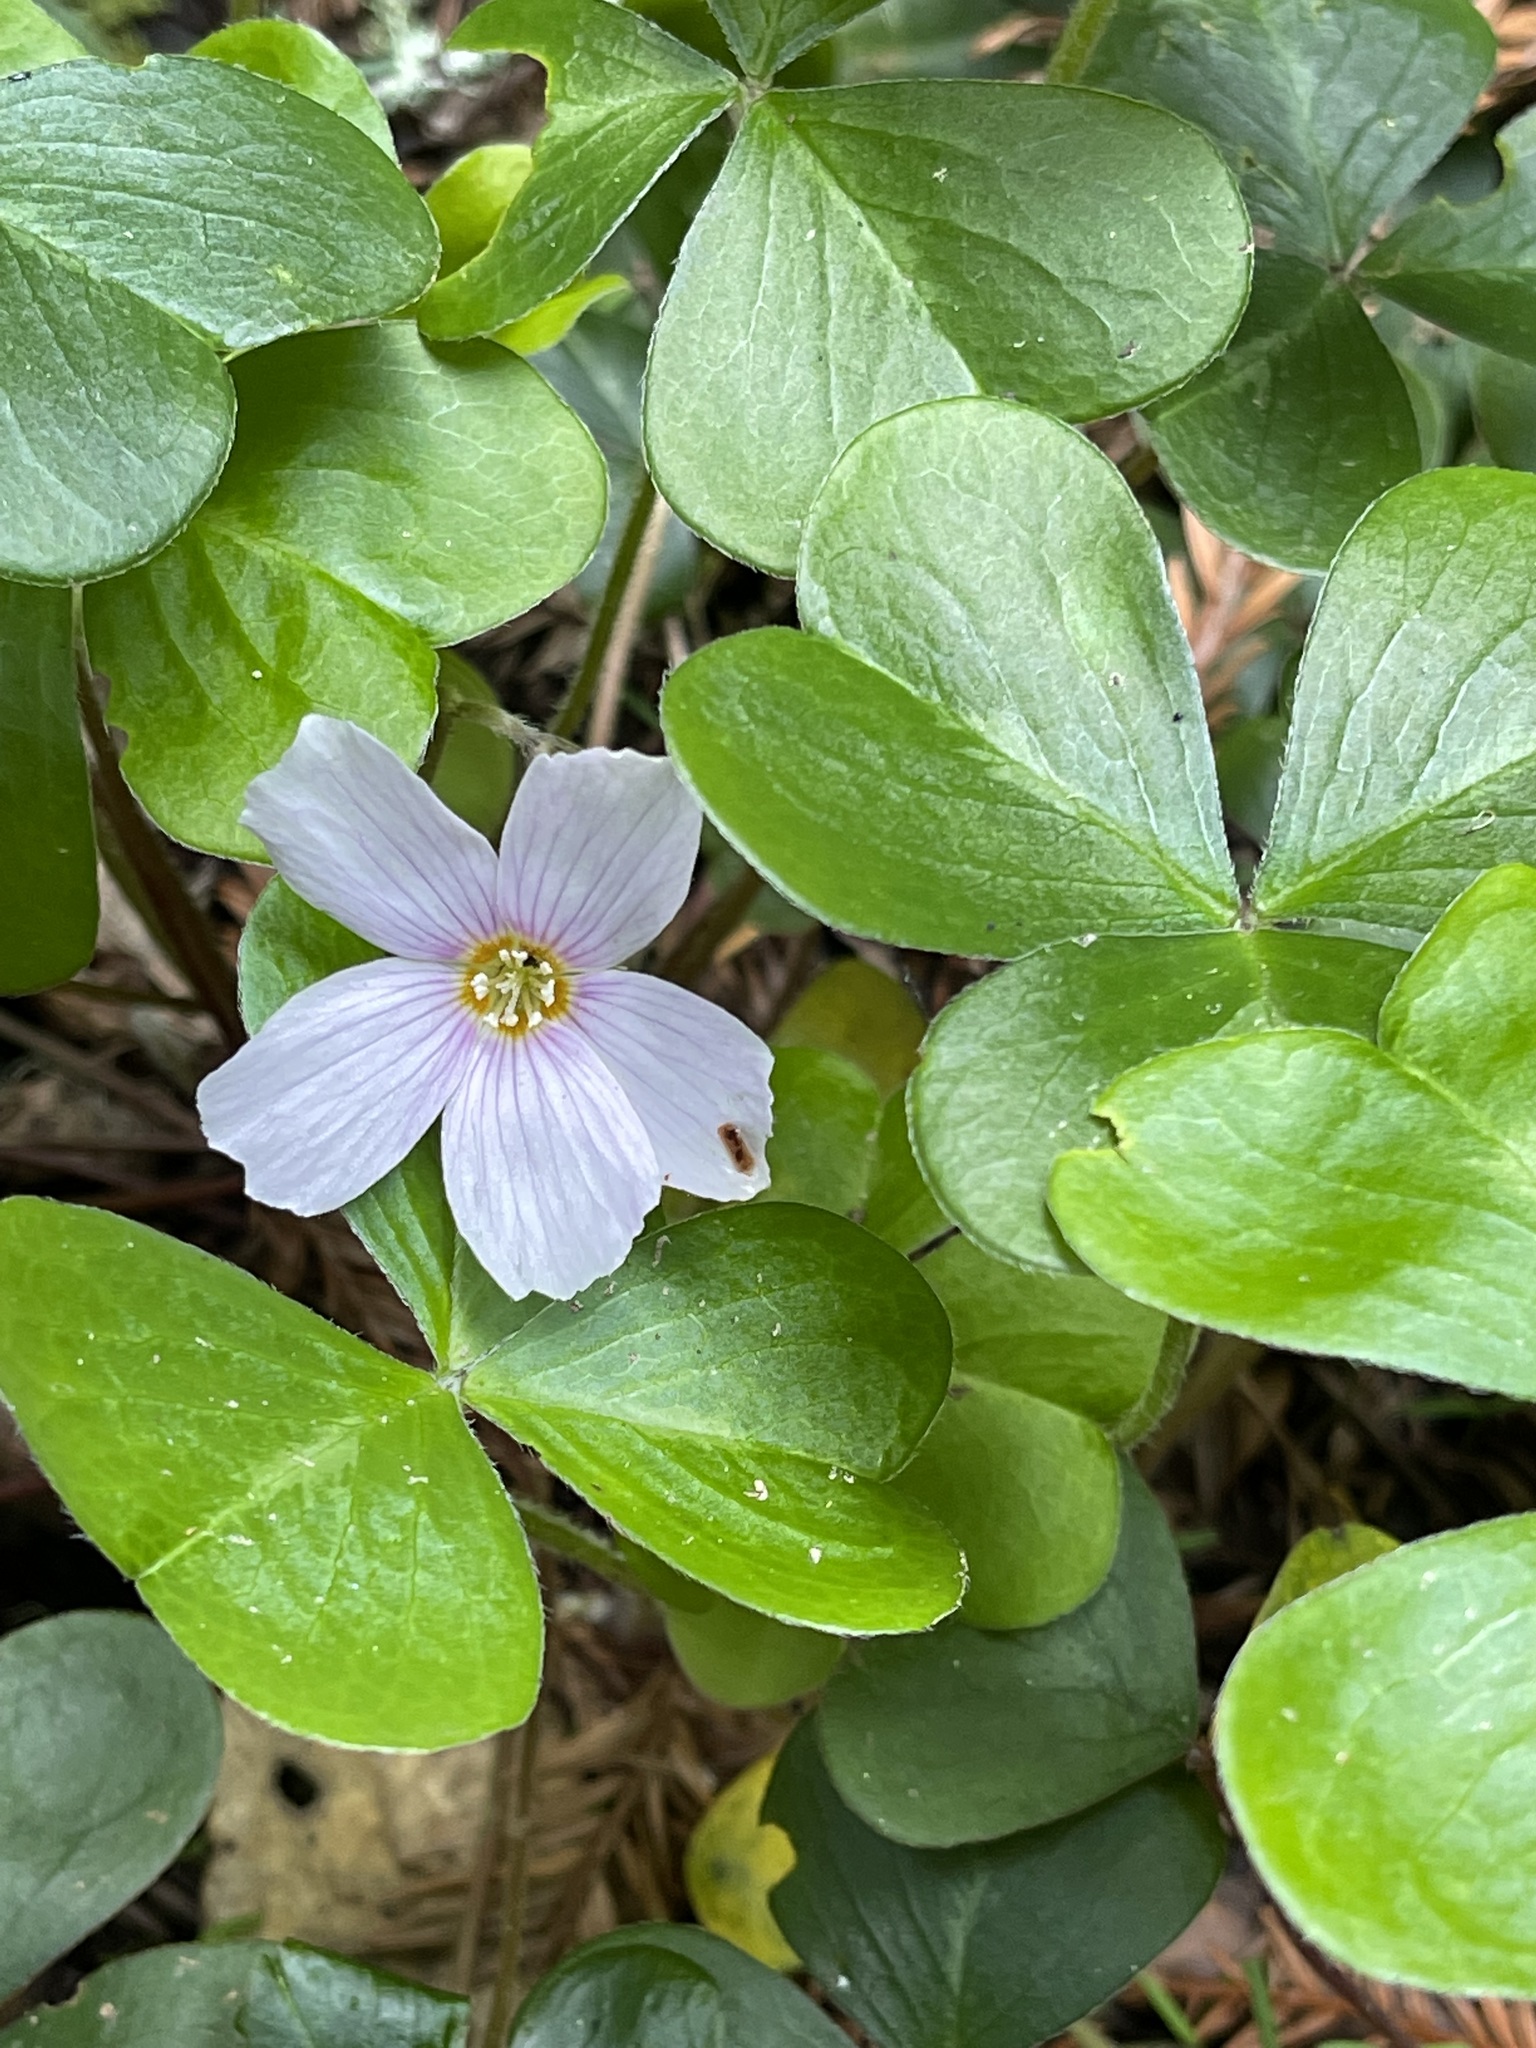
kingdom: Plantae
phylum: Tracheophyta
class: Magnoliopsida
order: Oxalidales
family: Oxalidaceae
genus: Oxalis
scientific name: Oxalis oregana
